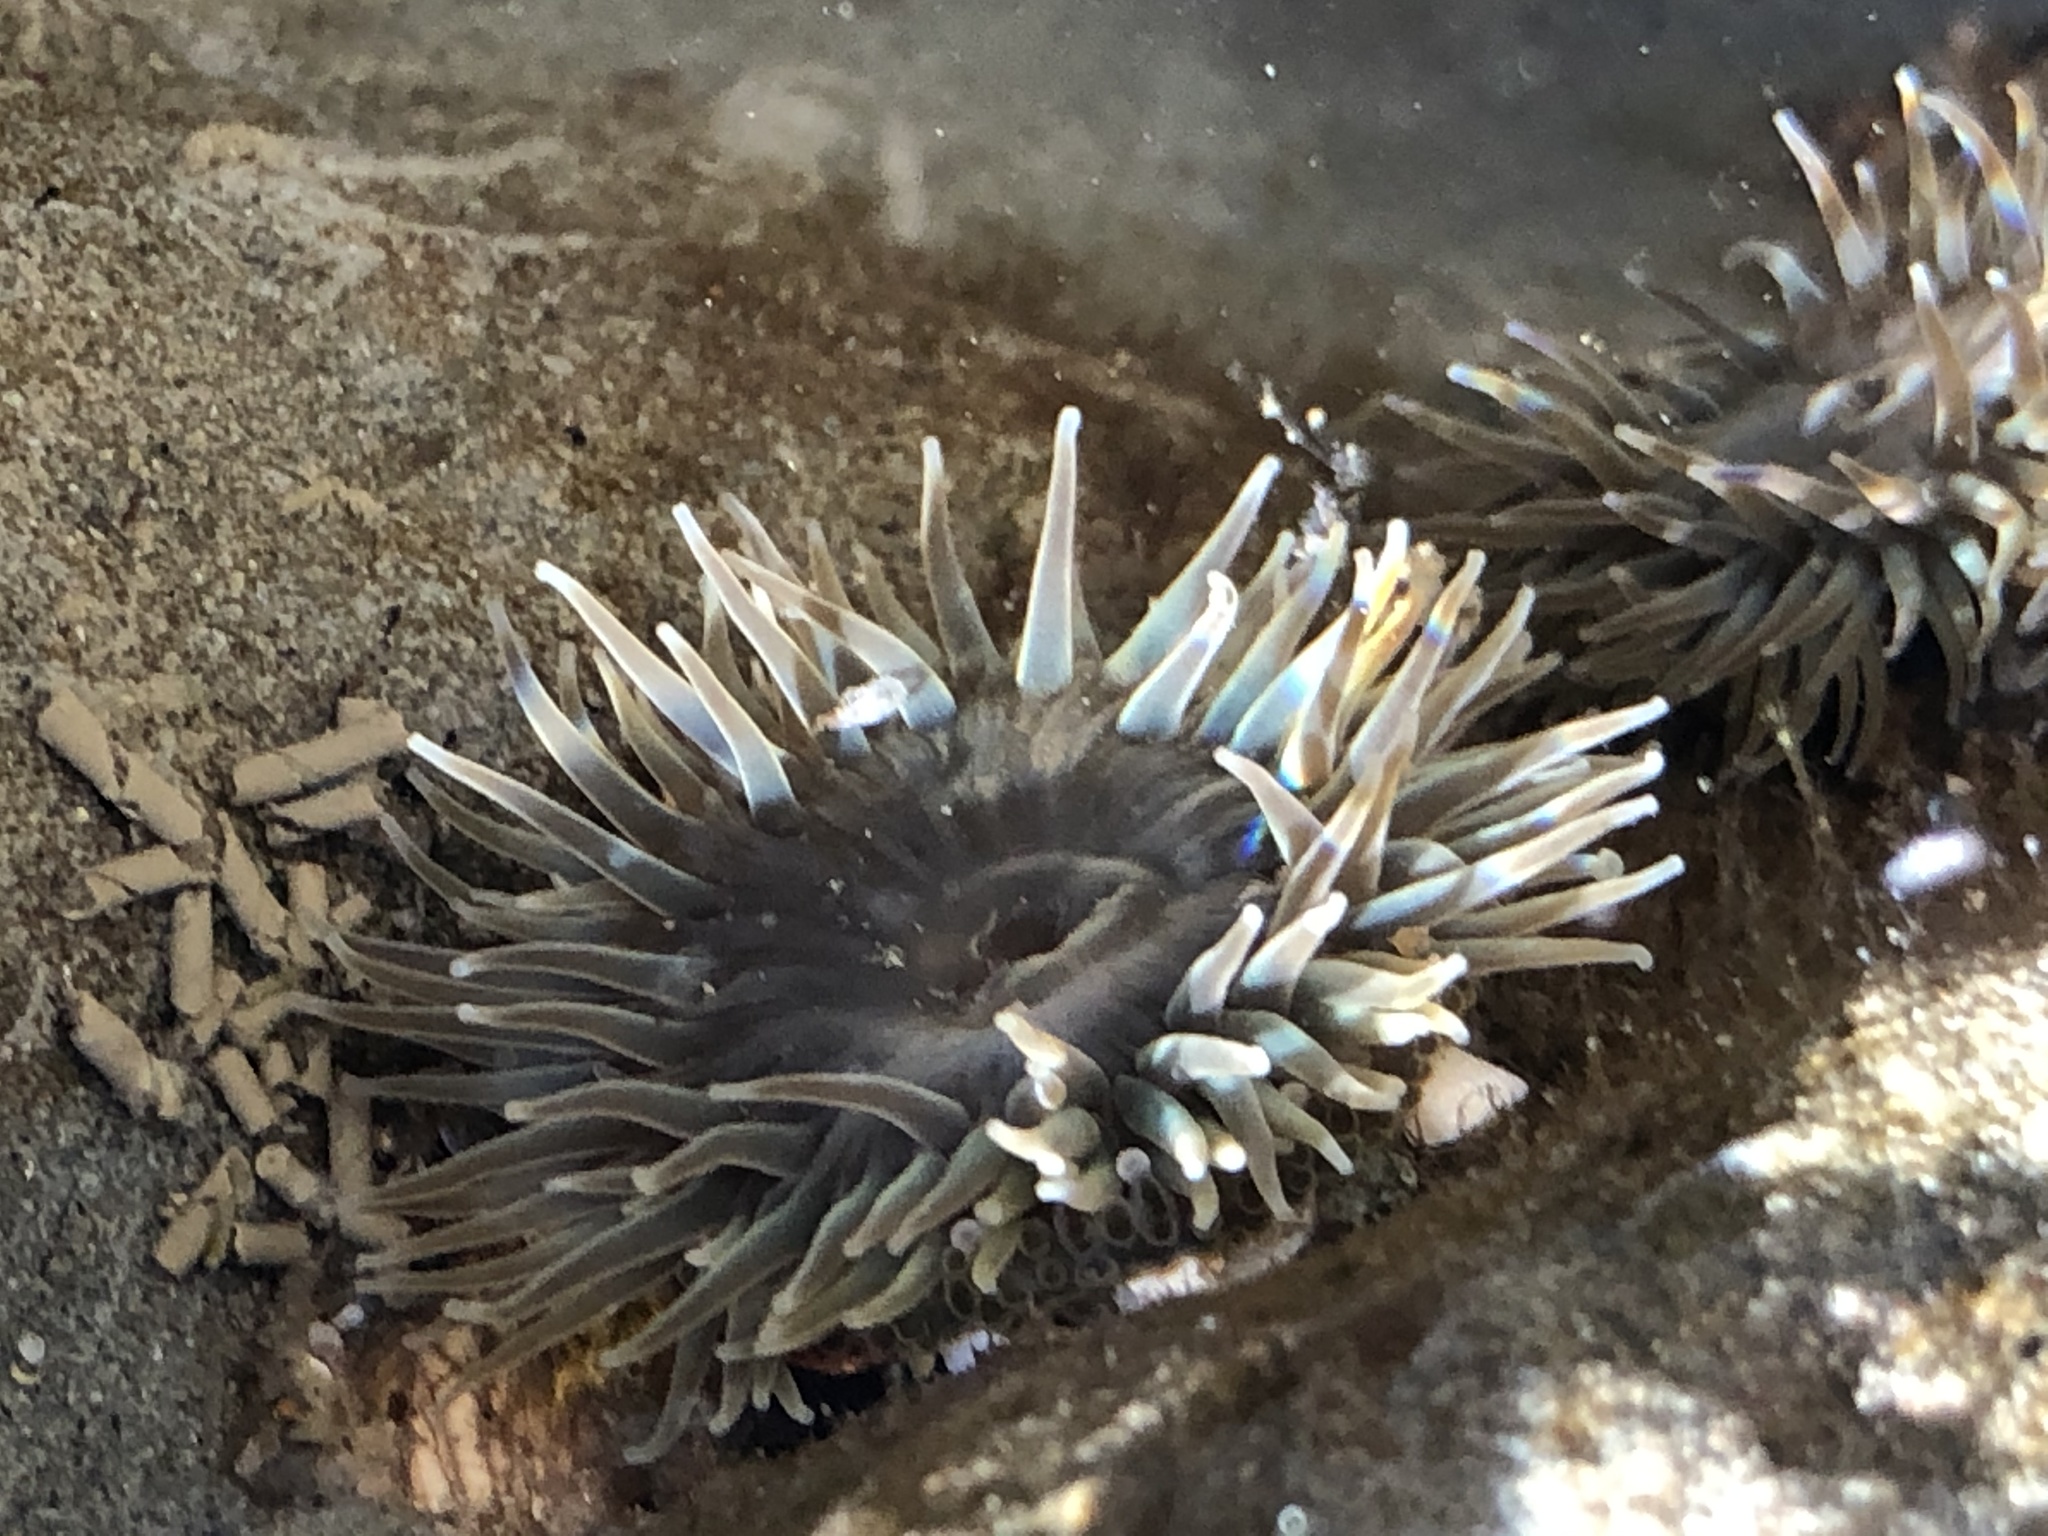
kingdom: Animalia
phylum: Cnidaria
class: Anthozoa
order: Actiniaria
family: Actiniidae
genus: Anthopleura
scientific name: Anthopleura elegantissima
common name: Clonal anemone
